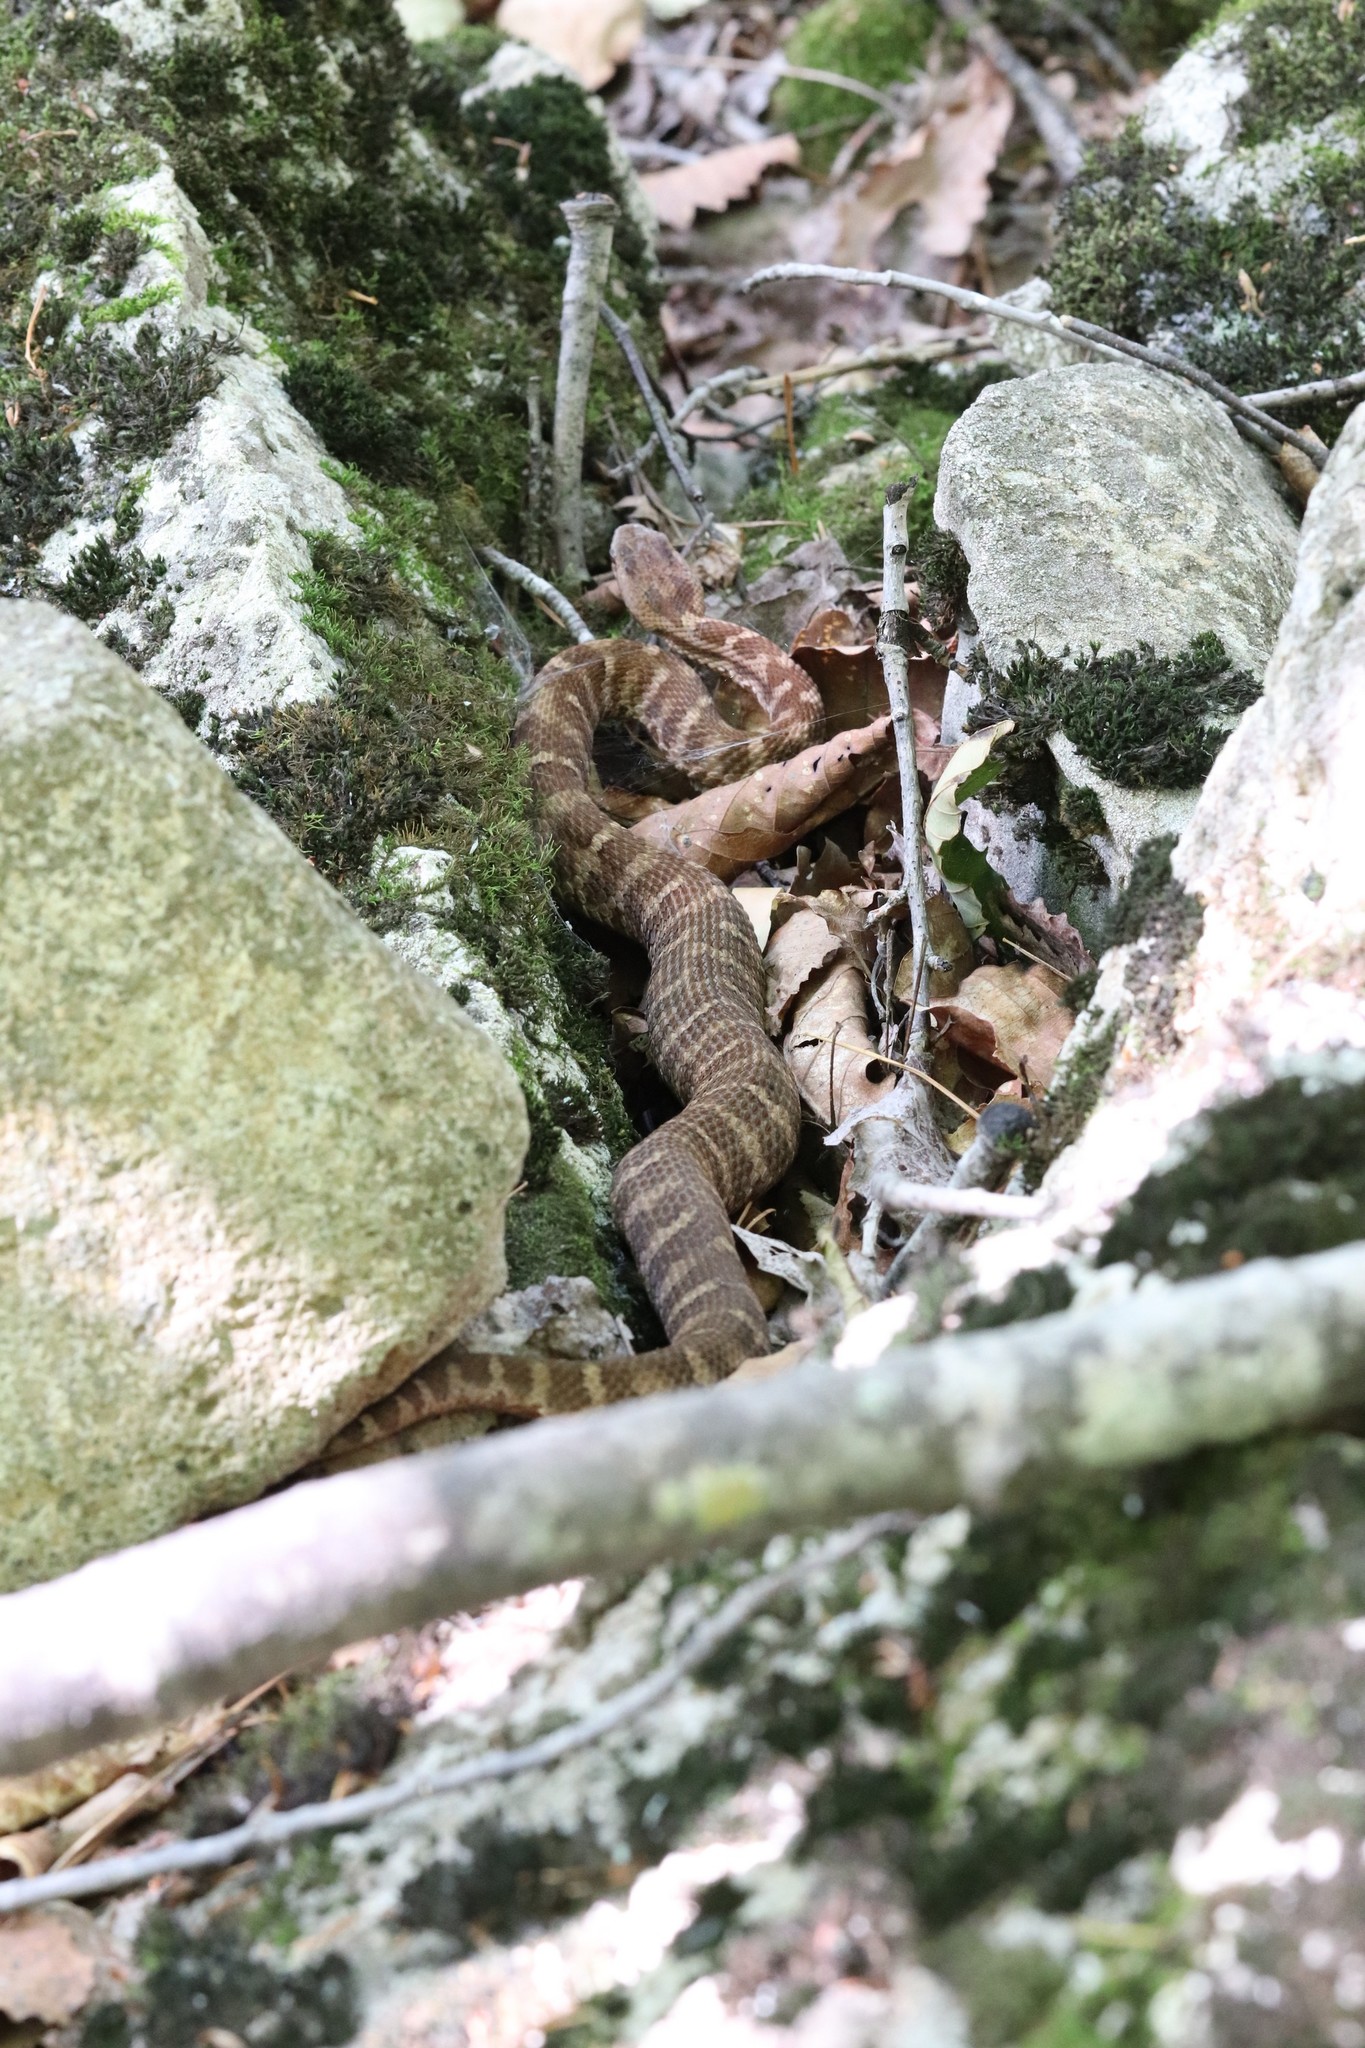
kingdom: Animalia
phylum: Chordata
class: Squamata
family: Viperidae
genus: Gloydius
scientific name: Gloydius intermedius
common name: Central asian pit viper
